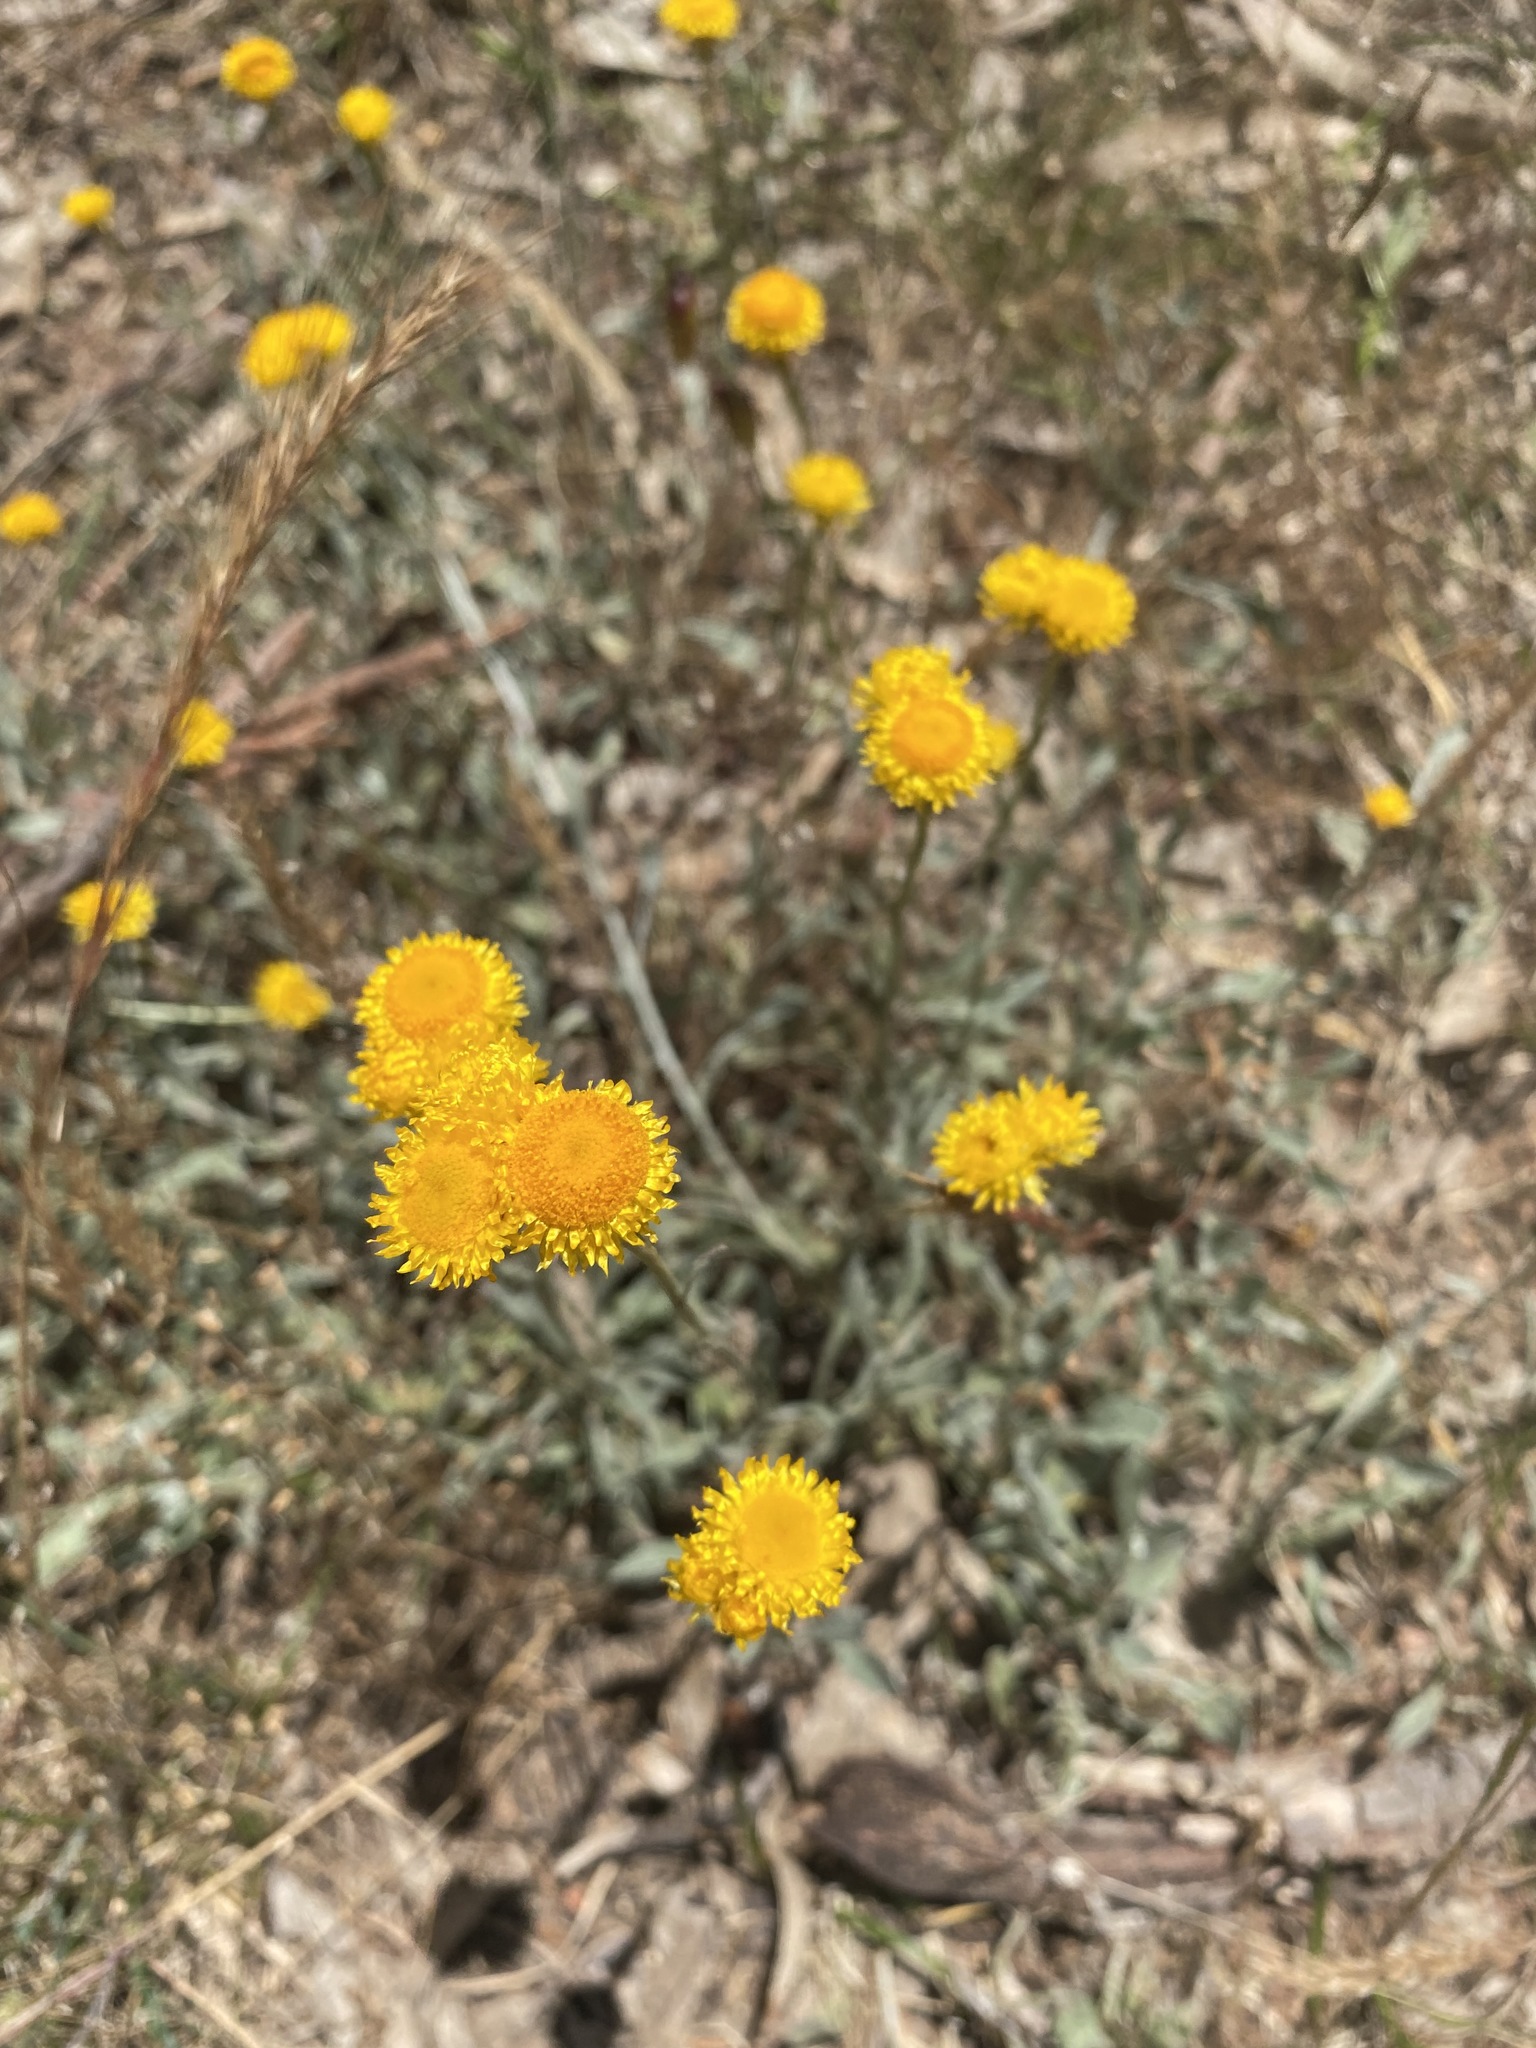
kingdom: Plantae
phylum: Tracheophyta
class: Magnoliopsida
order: Asterales
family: Asteraceae
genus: Chrysocephalum
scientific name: Chrysocephalum apiculatum
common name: Common everlasting
